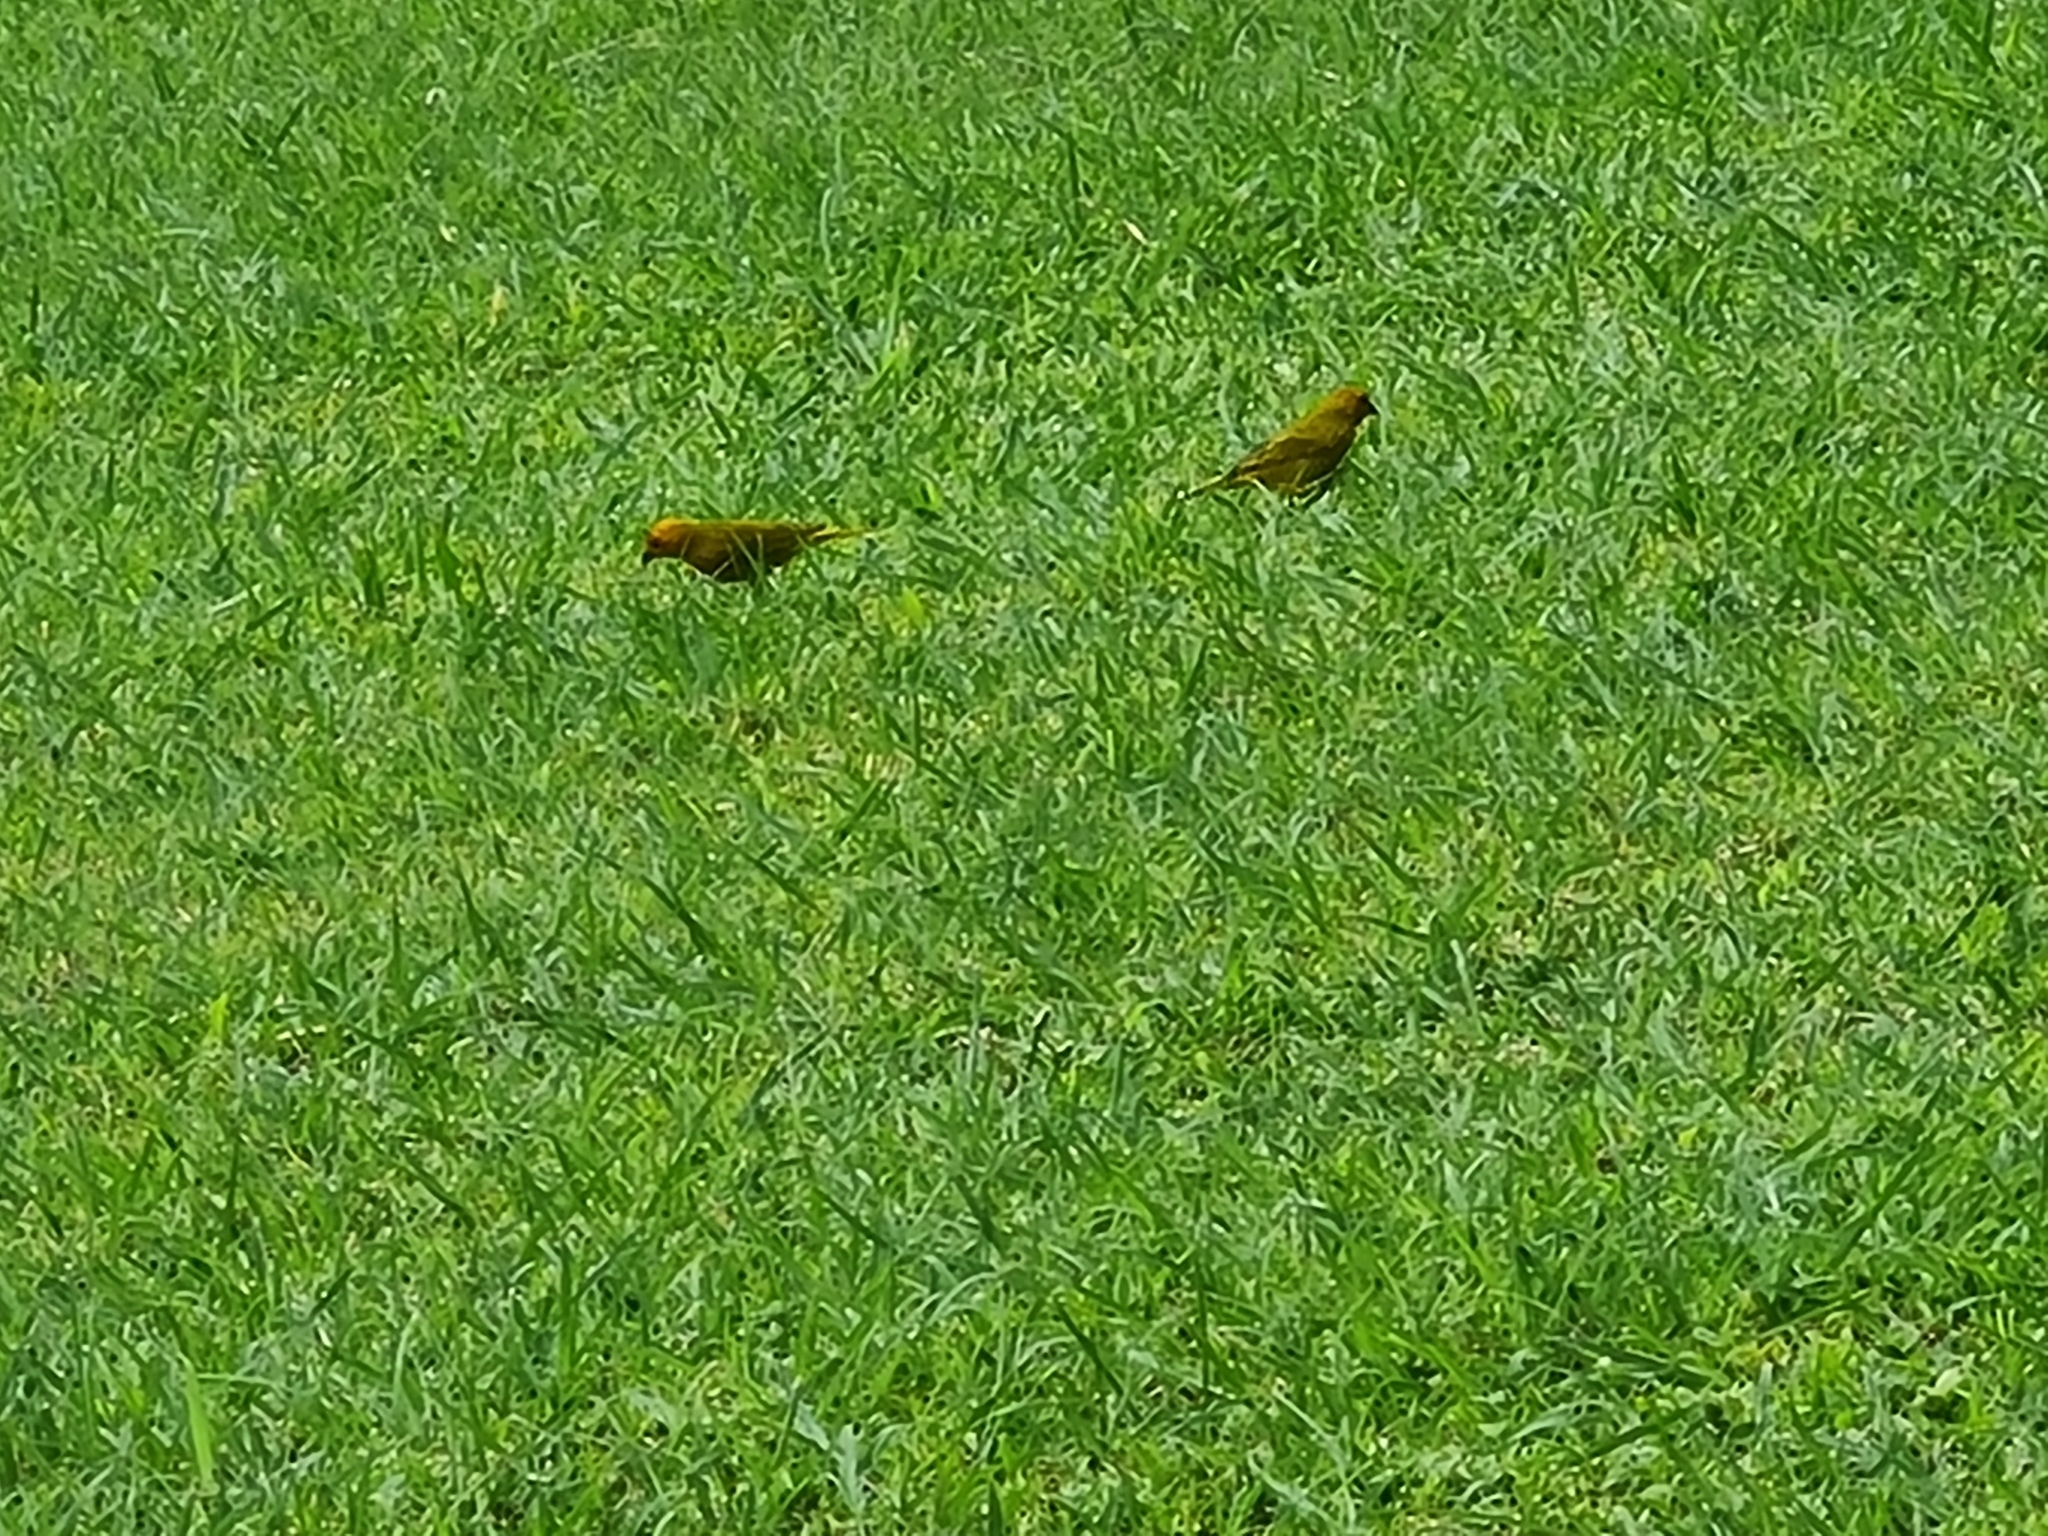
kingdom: Animalia
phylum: Chordata
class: Aves
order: Passeriformes
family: Thraupidae
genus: Sicalis
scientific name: Sicalis flaveola
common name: Saffron finch
